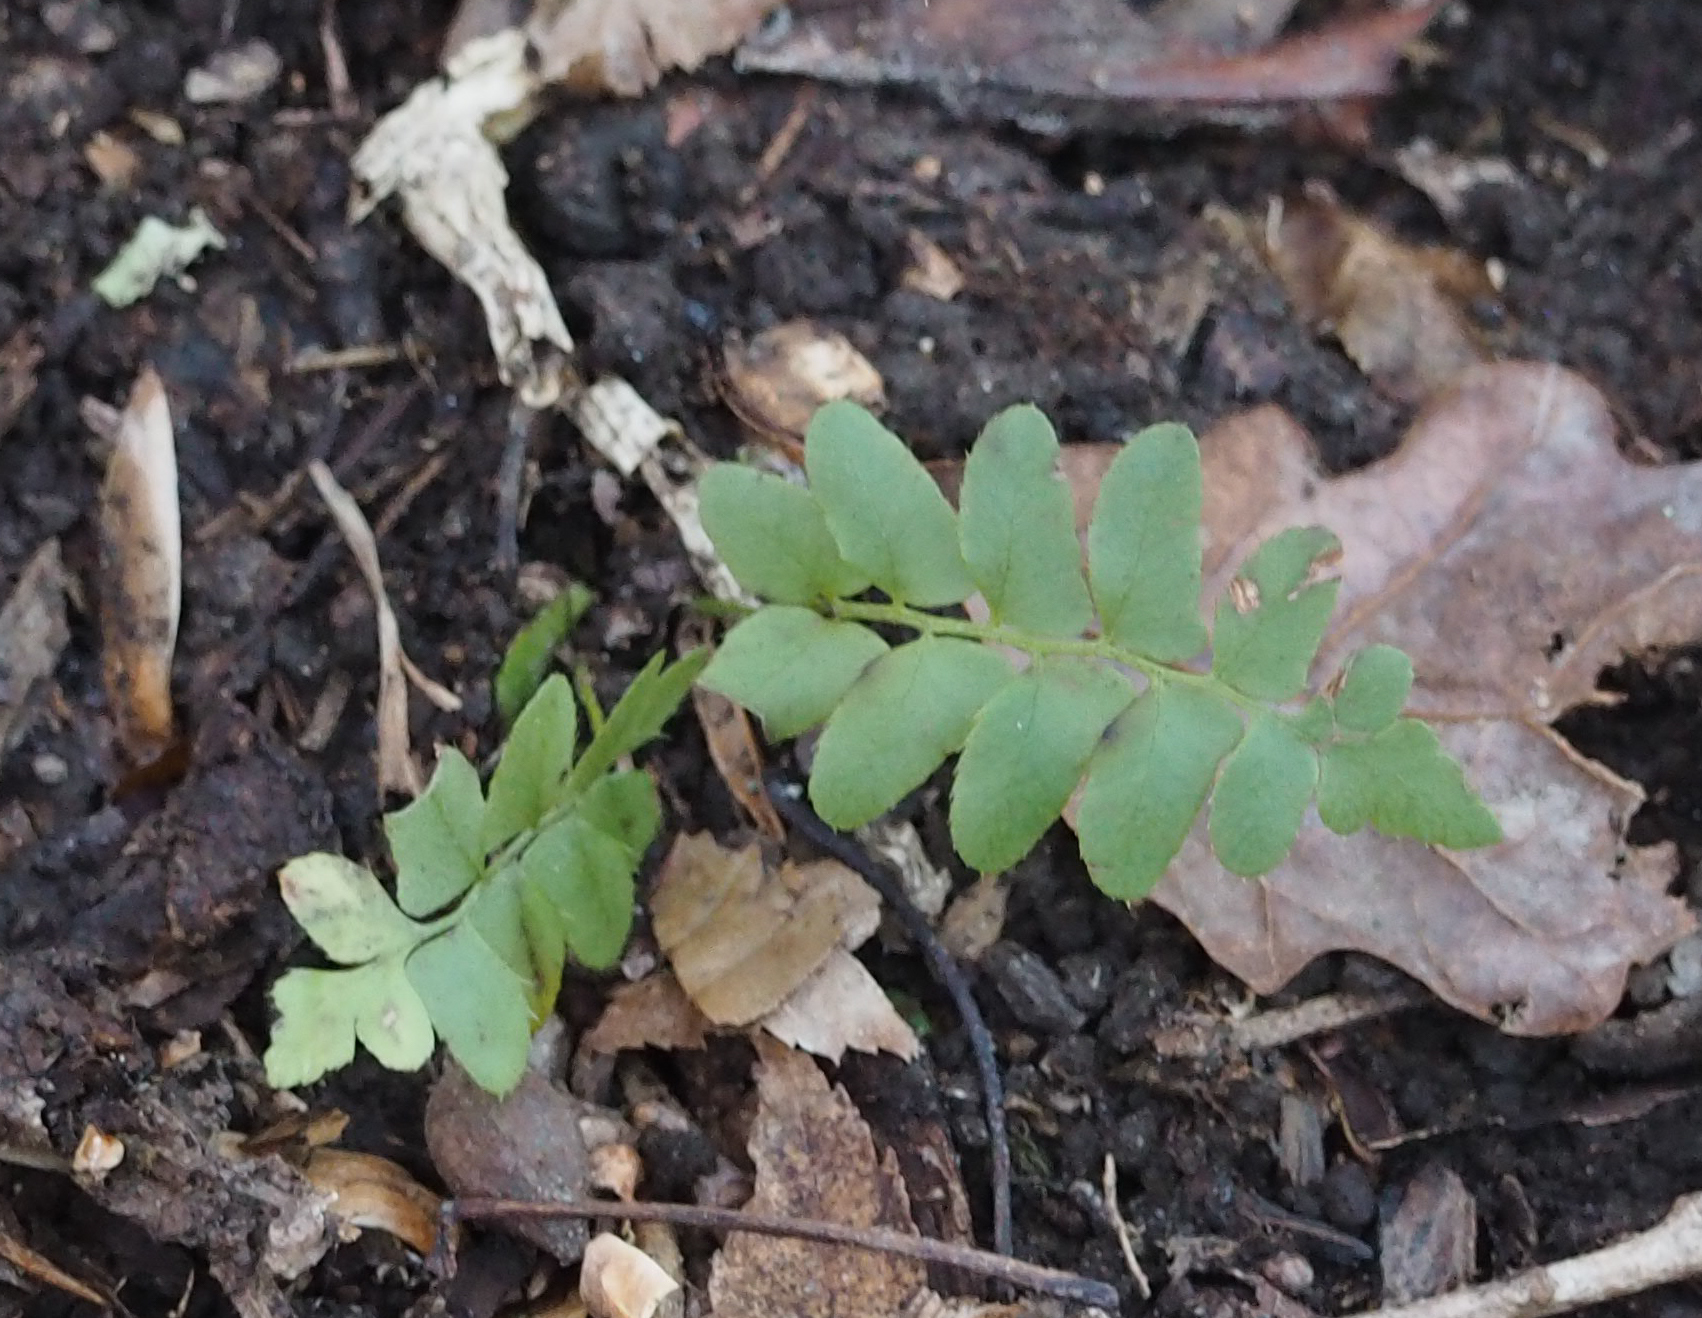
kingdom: Plantae
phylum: Tracheophyta
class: Polypodiopsida
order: Polypodiales
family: Dryopteridaceae
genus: Polystichum
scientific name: Polystichum acrostichoides
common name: Christmas fern
